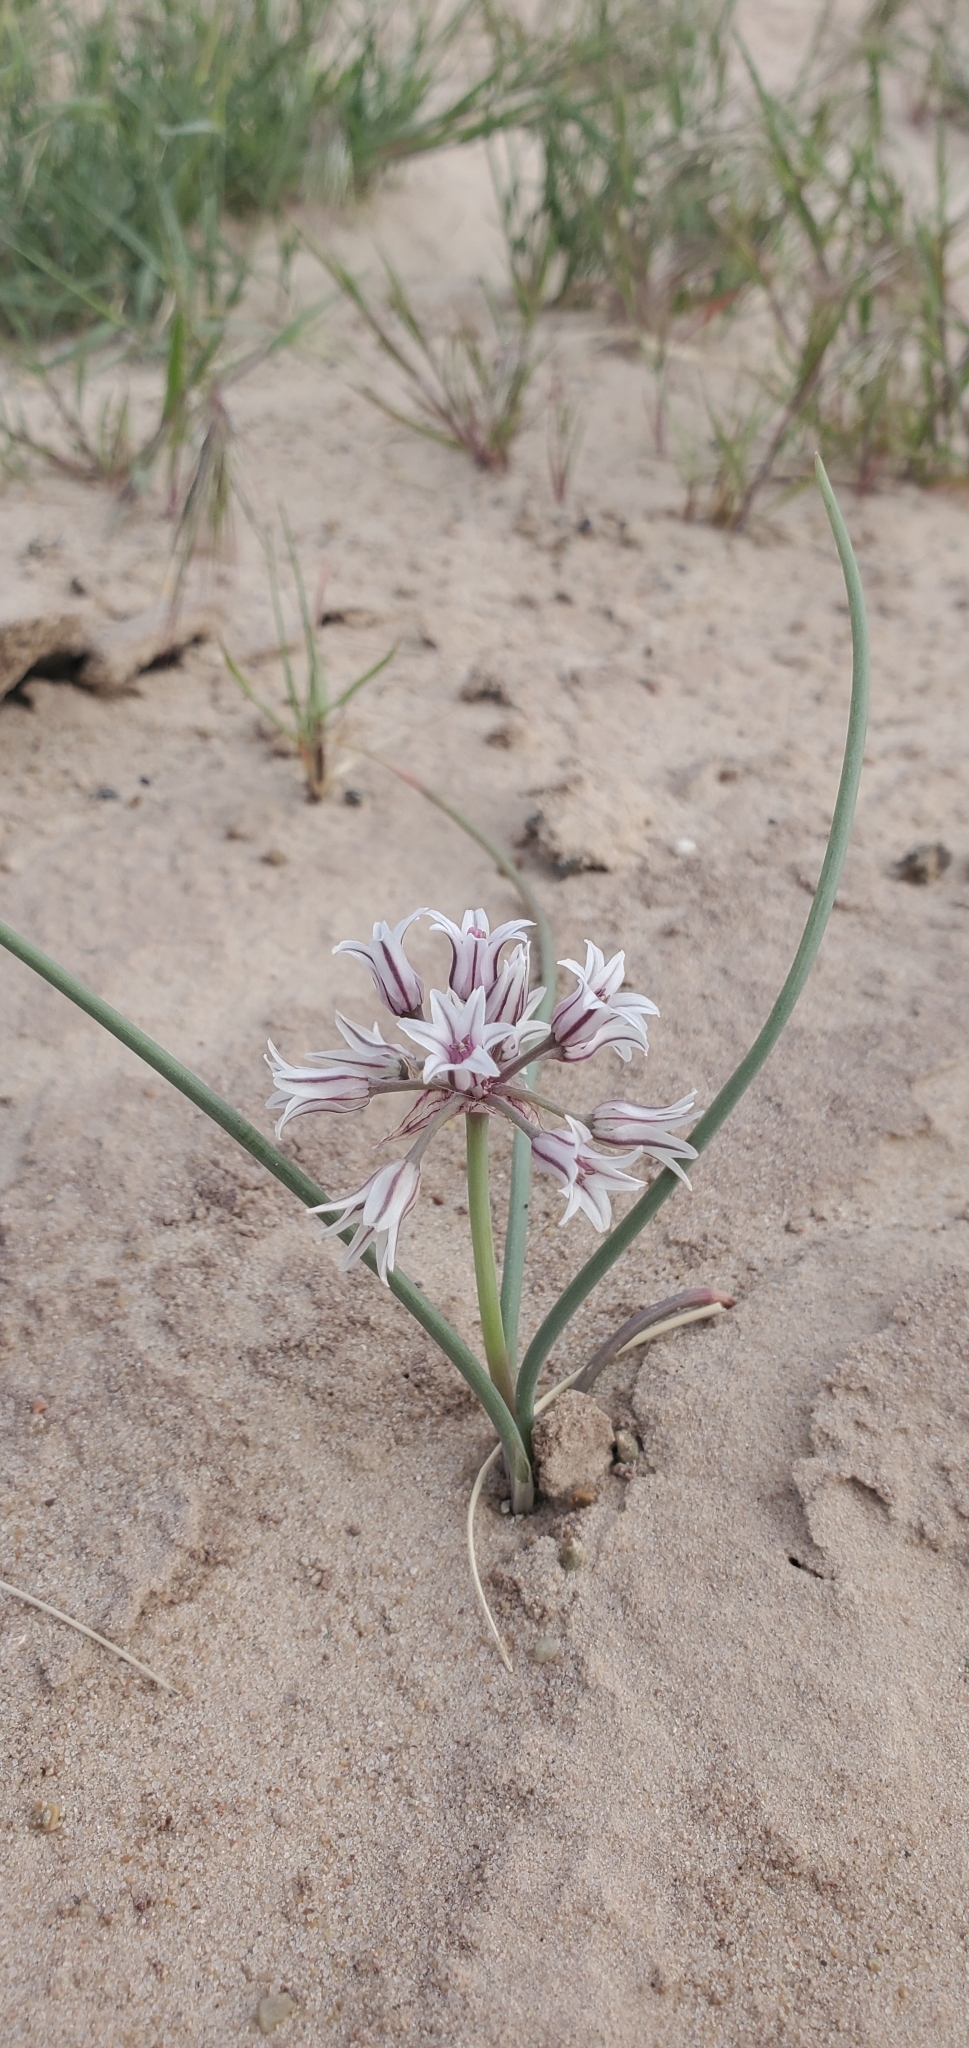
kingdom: Plantae
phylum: Tracheophyta
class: Liliopsida
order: Asparagales
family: Amaryllidaceae
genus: Allium
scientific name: Allium macropetalum
